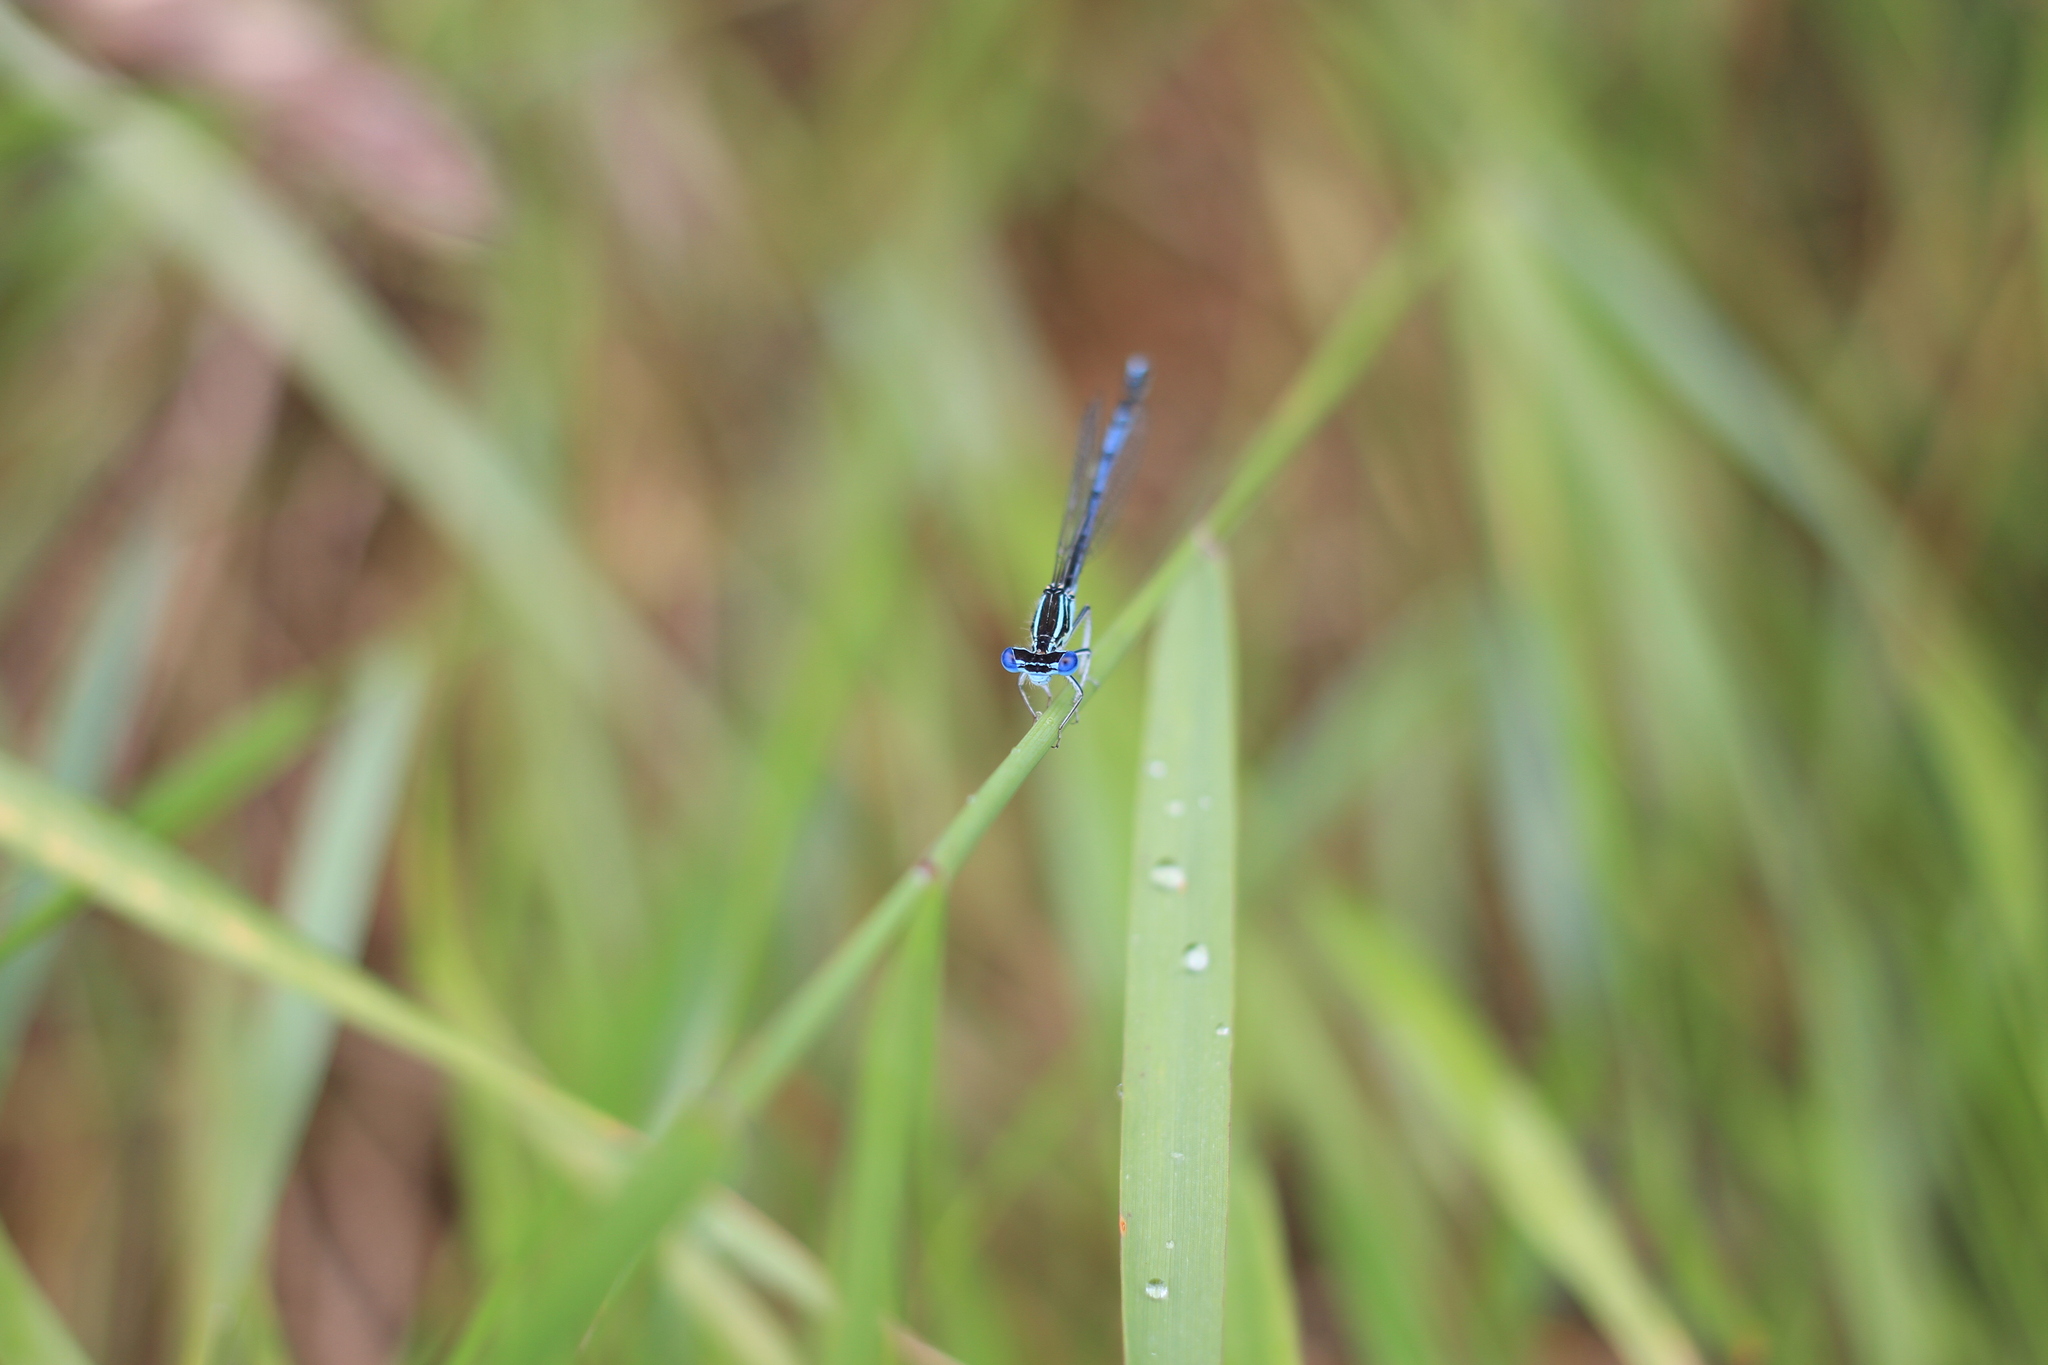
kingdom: Animalia
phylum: Arthropoda
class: Insecta
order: Odonata
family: Platycnemididae
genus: Platycnemis
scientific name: Platycnemis pennipes
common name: White-legged damselfly
